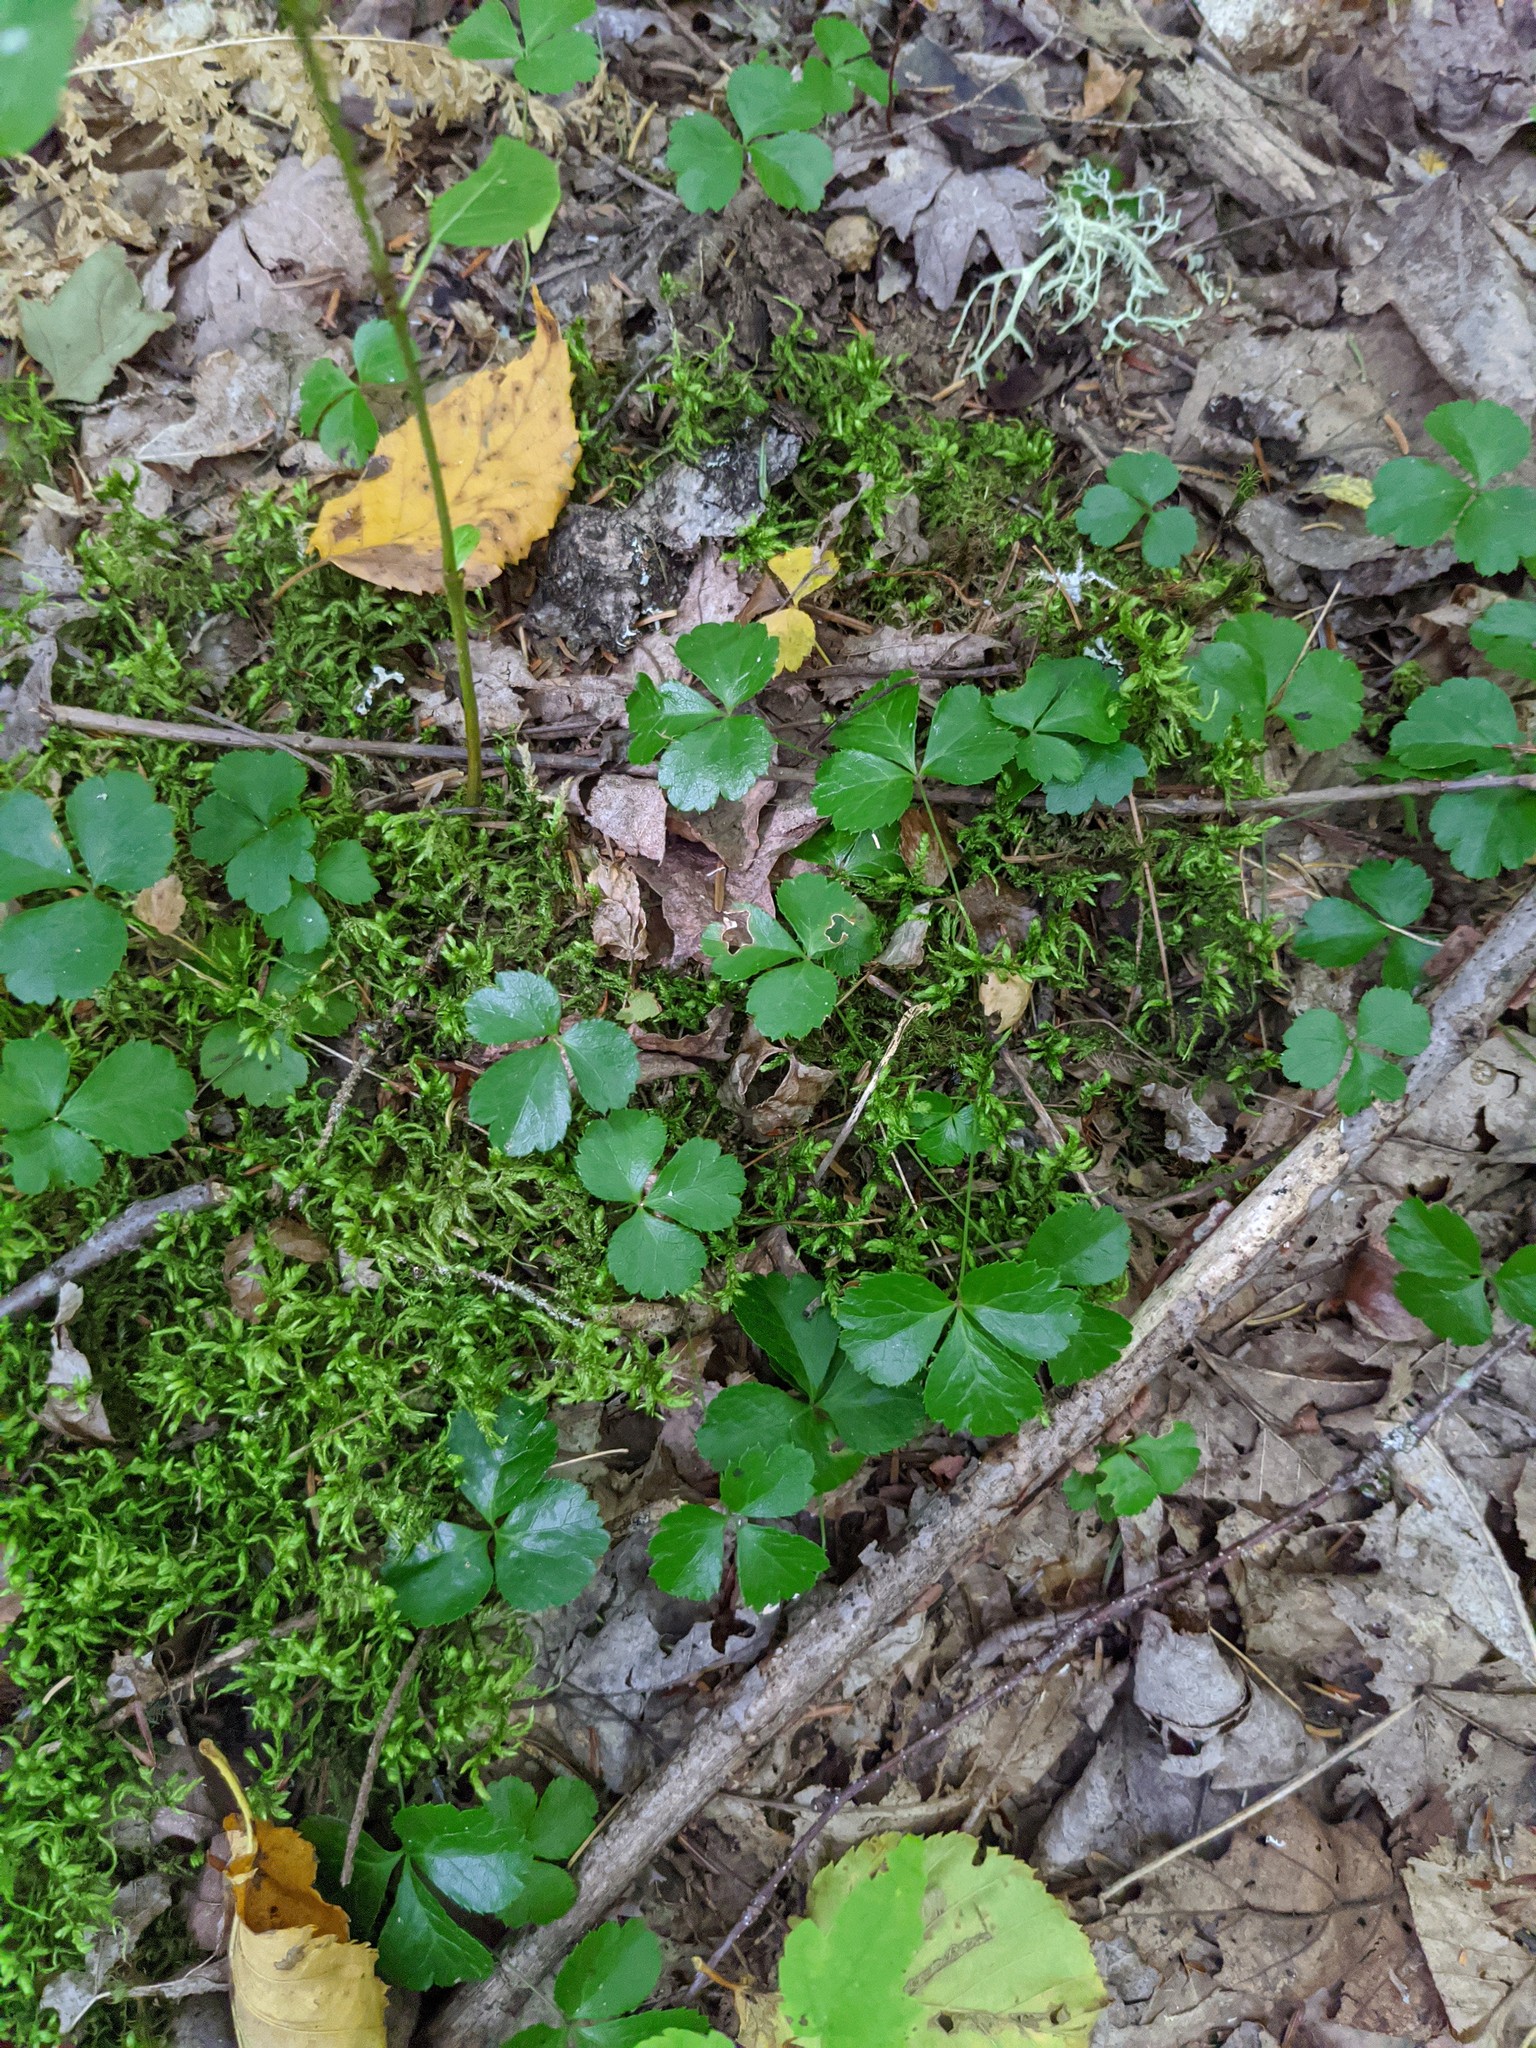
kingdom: Plantae
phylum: Tracheophyta
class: Magnoliopsida
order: Ranunculales
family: Ranunculaceae
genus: Coptis
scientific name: Coptis trifolia
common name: Canker-root
